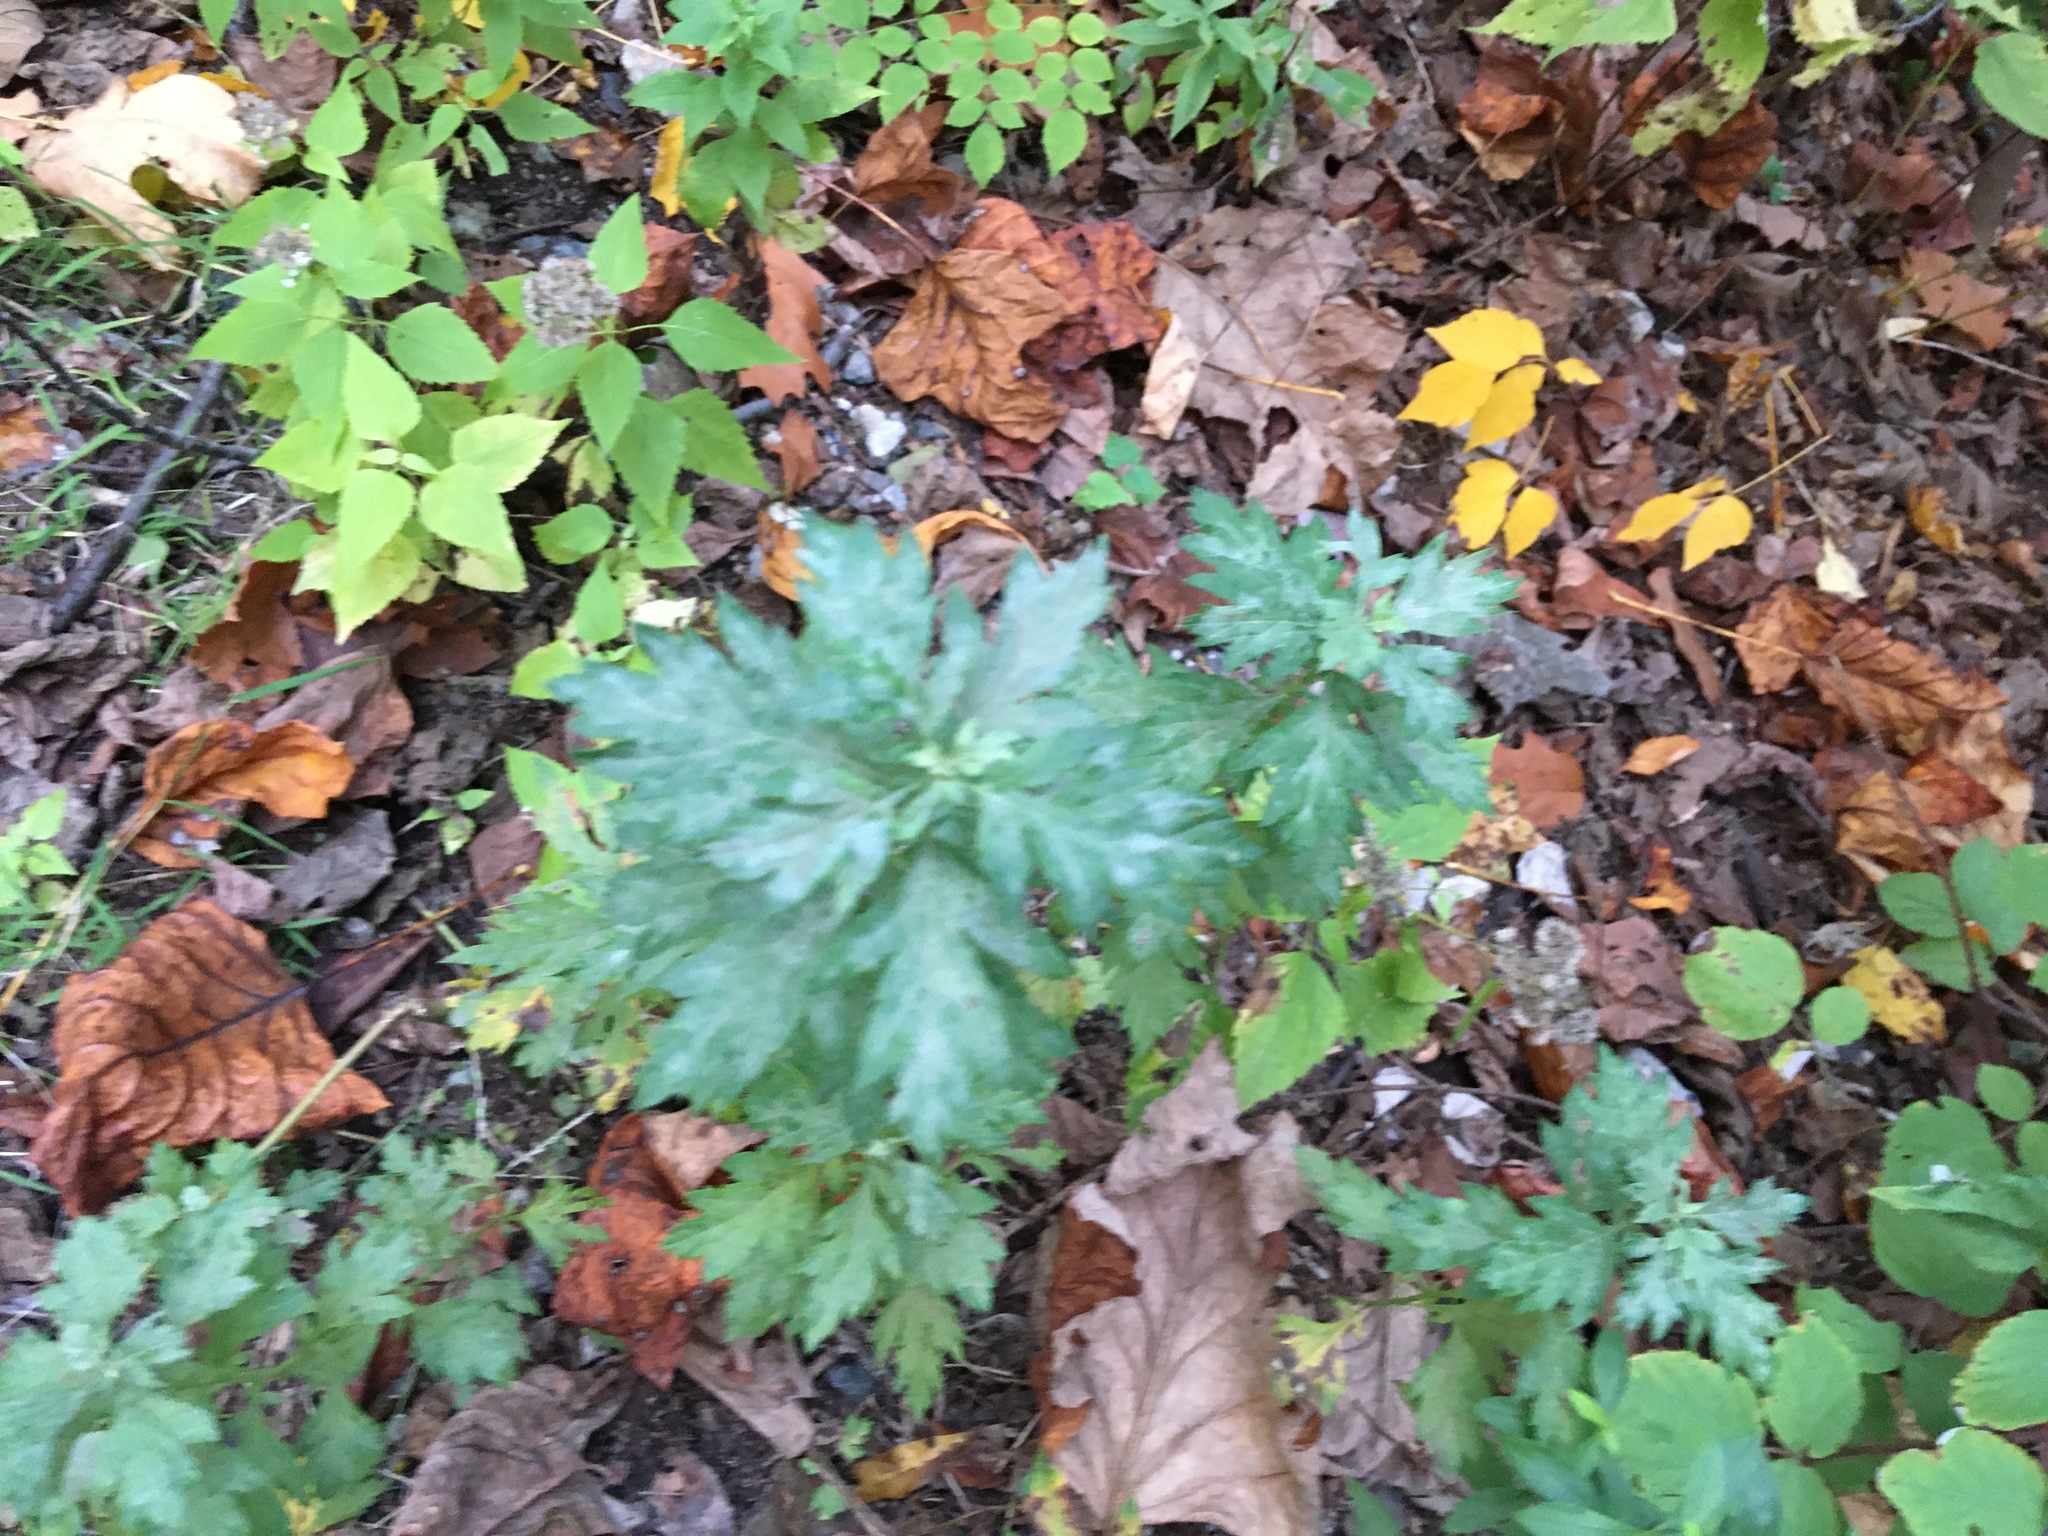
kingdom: Plantae
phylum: Tracheophyta
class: Magnoliopsida
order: Asterales
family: Asteraceae
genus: Artemisia
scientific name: Artemisia vulgaris
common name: Mugwort
